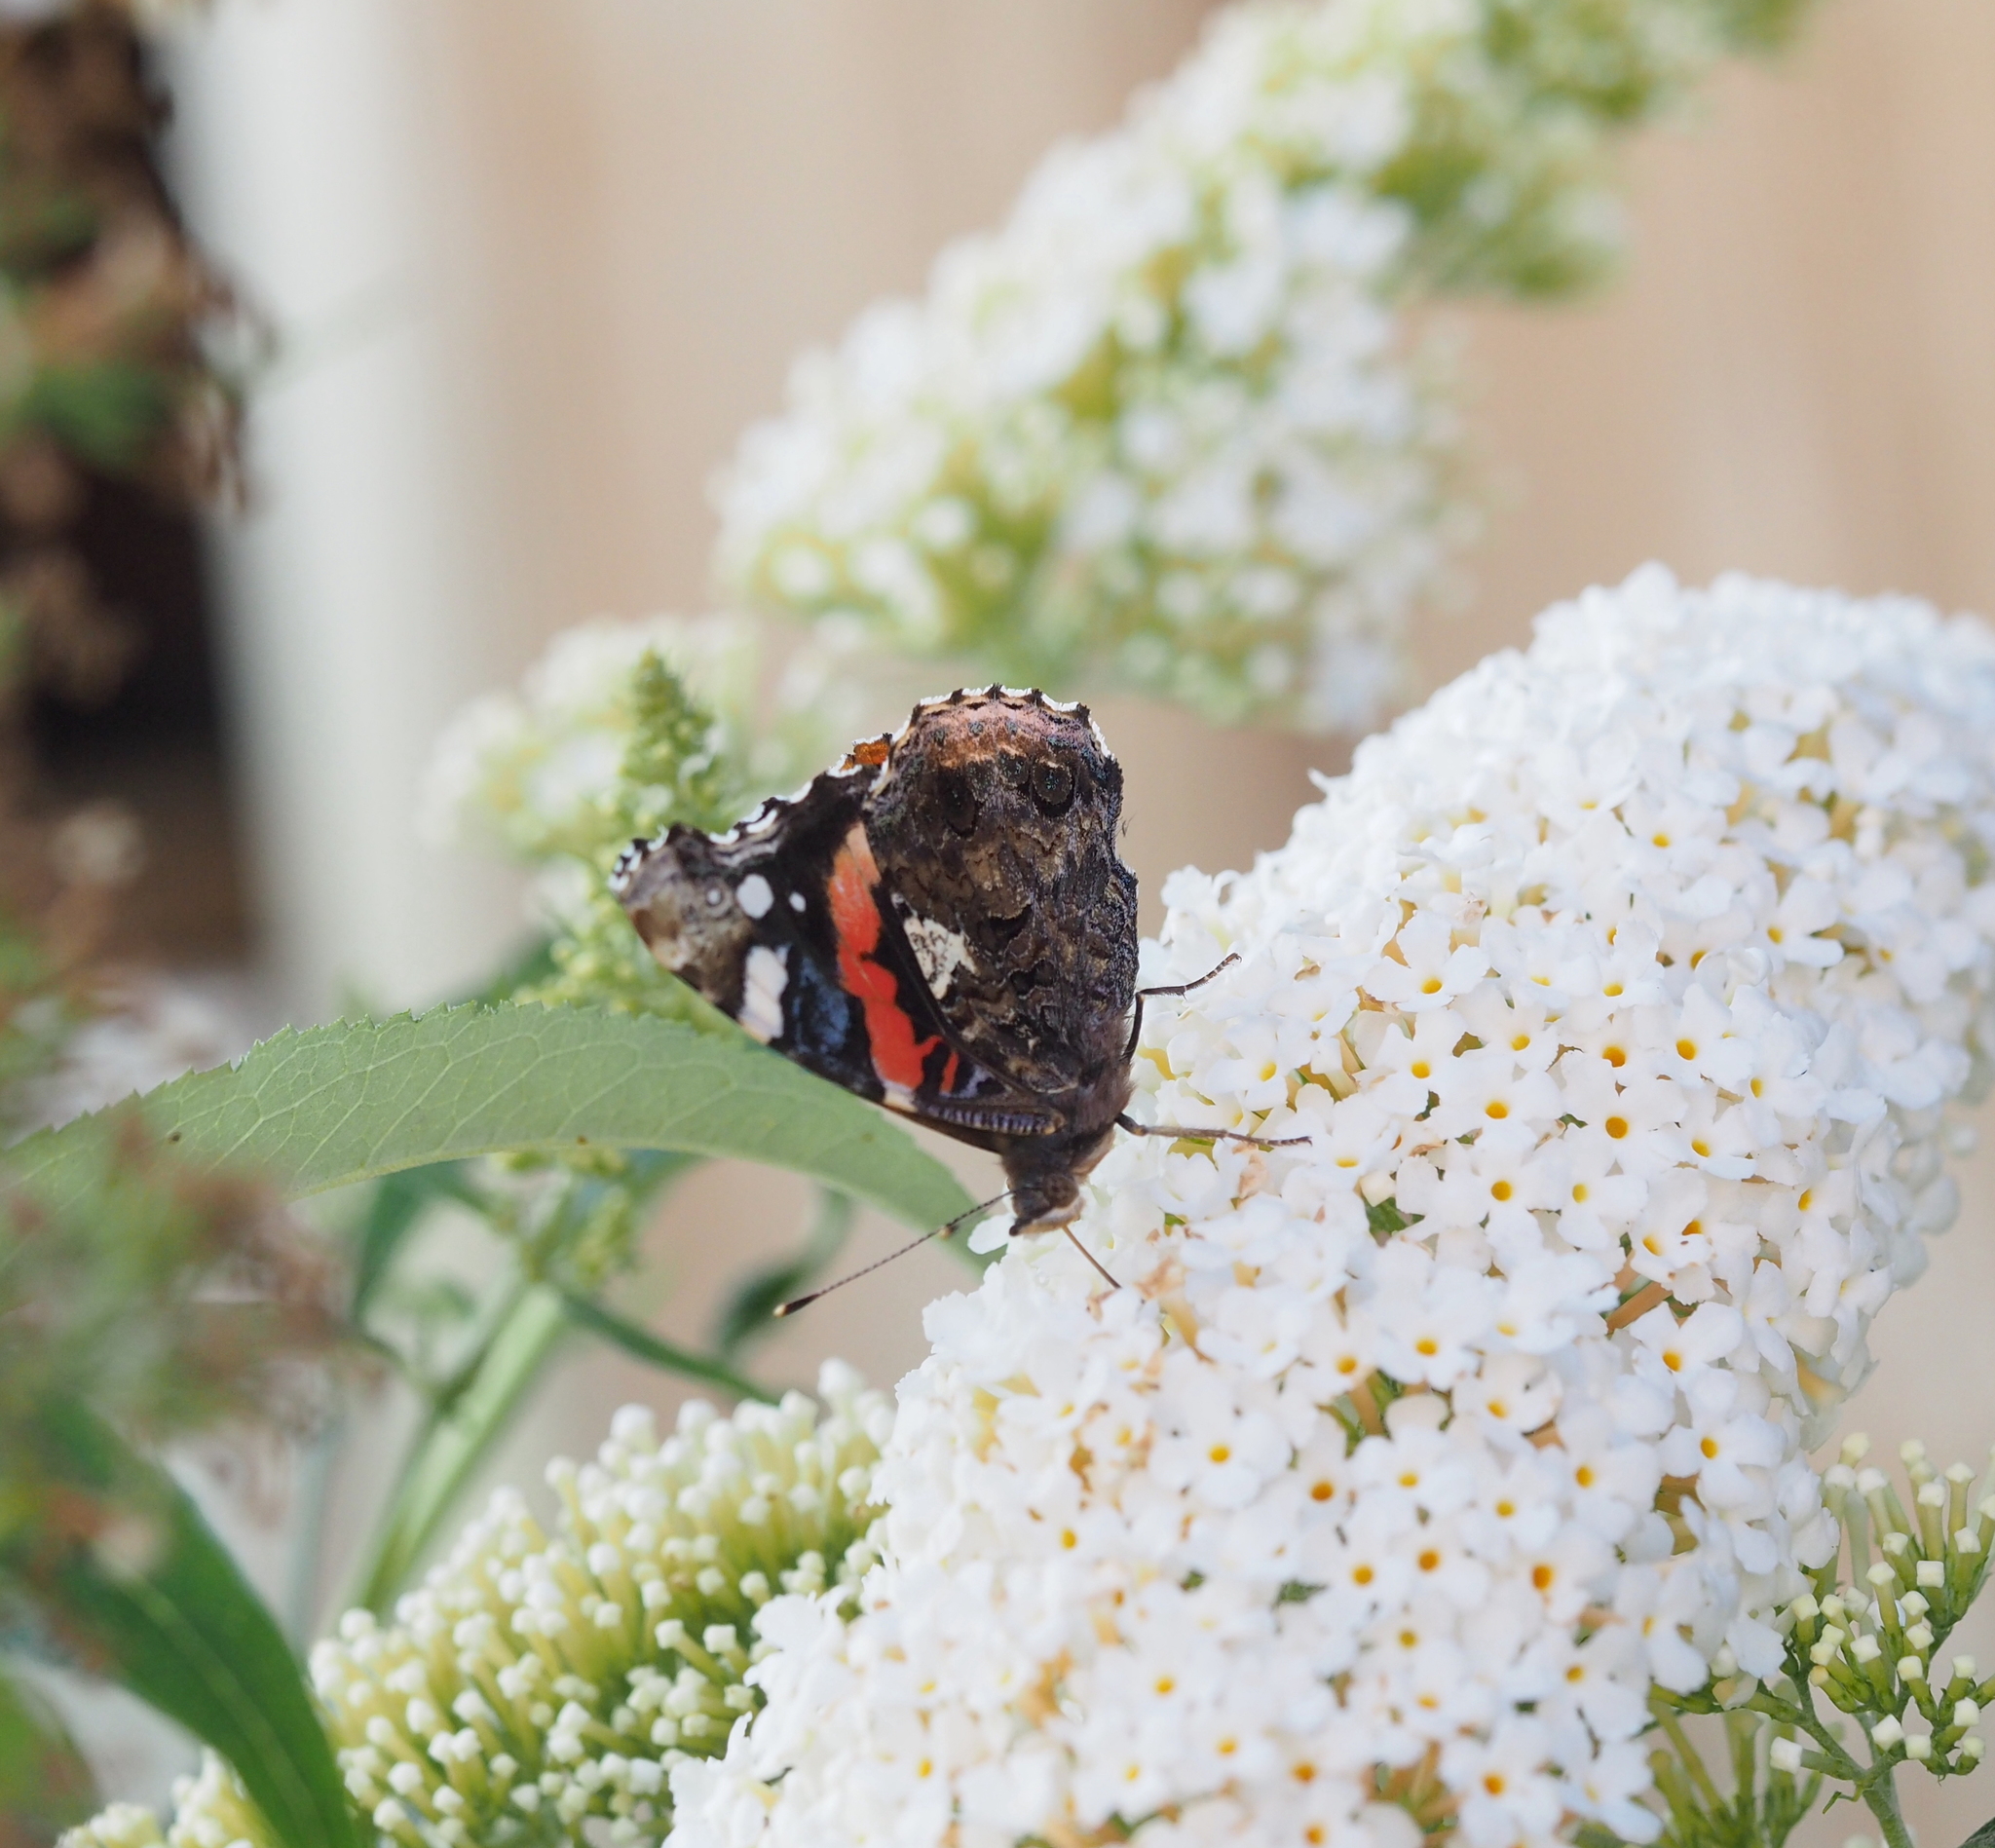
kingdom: Animalia
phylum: Arthropoda
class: Insecta
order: Lepidoptera
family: Nymphalidae
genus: Vanessa
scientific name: Vanessa atalanta
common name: Red admiral
